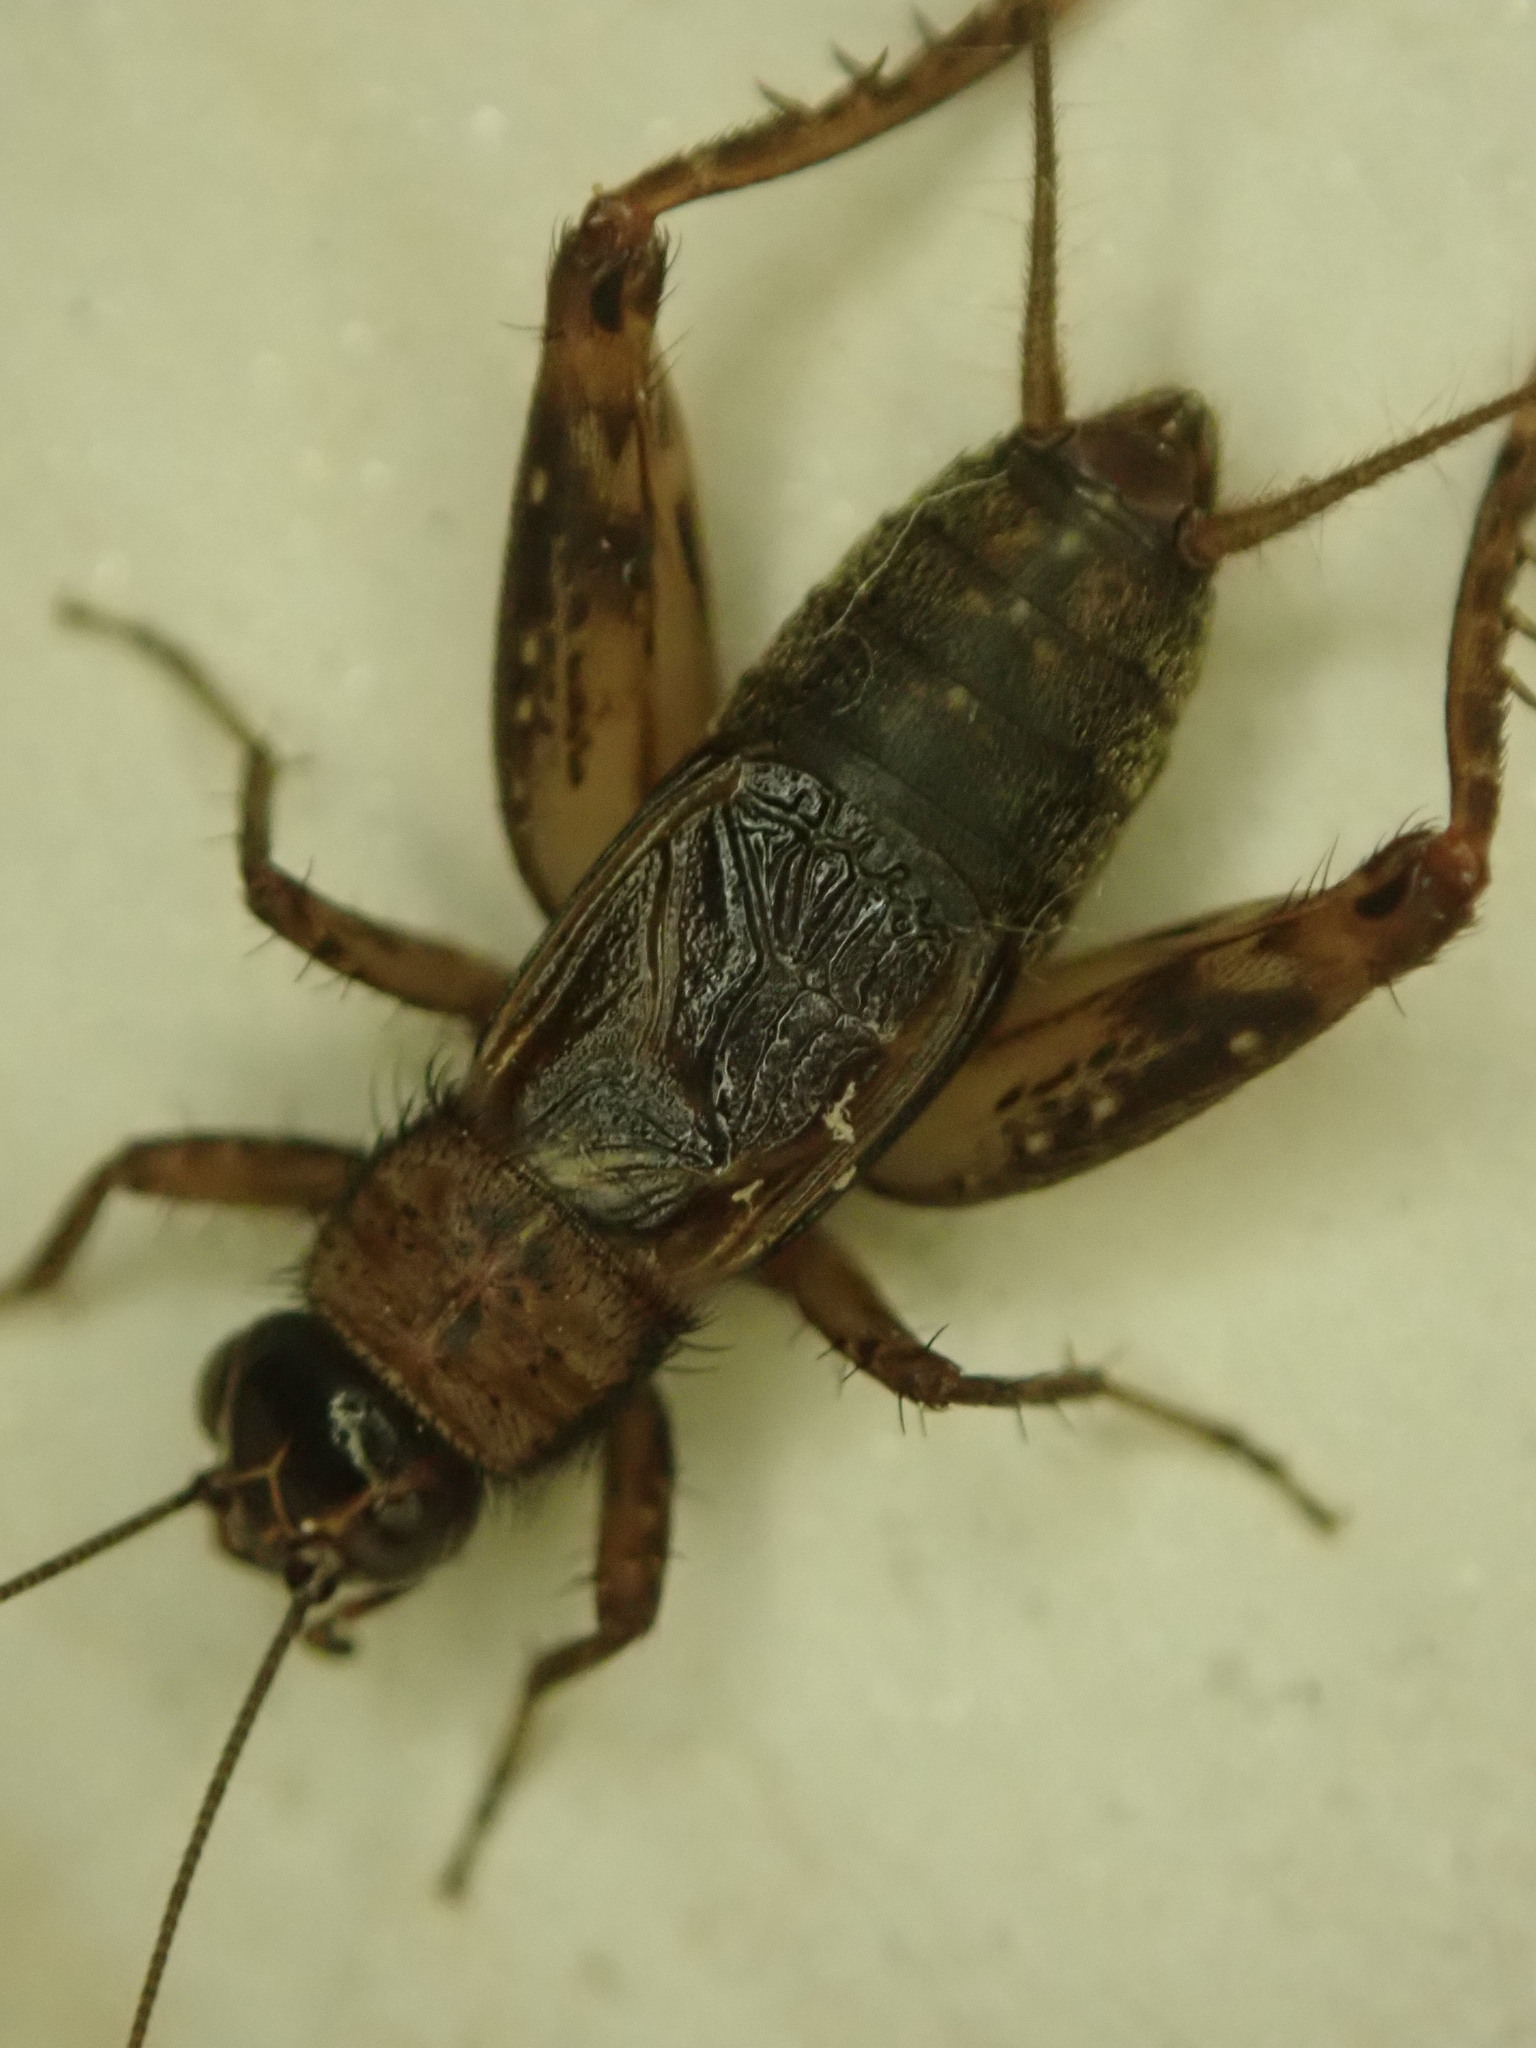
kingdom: Animalia
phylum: Arthropoda
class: Insecta
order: Orthoptera
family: Trigonidiidae
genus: Nemobius
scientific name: Nemobius sylvestris
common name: Wood-cricket
